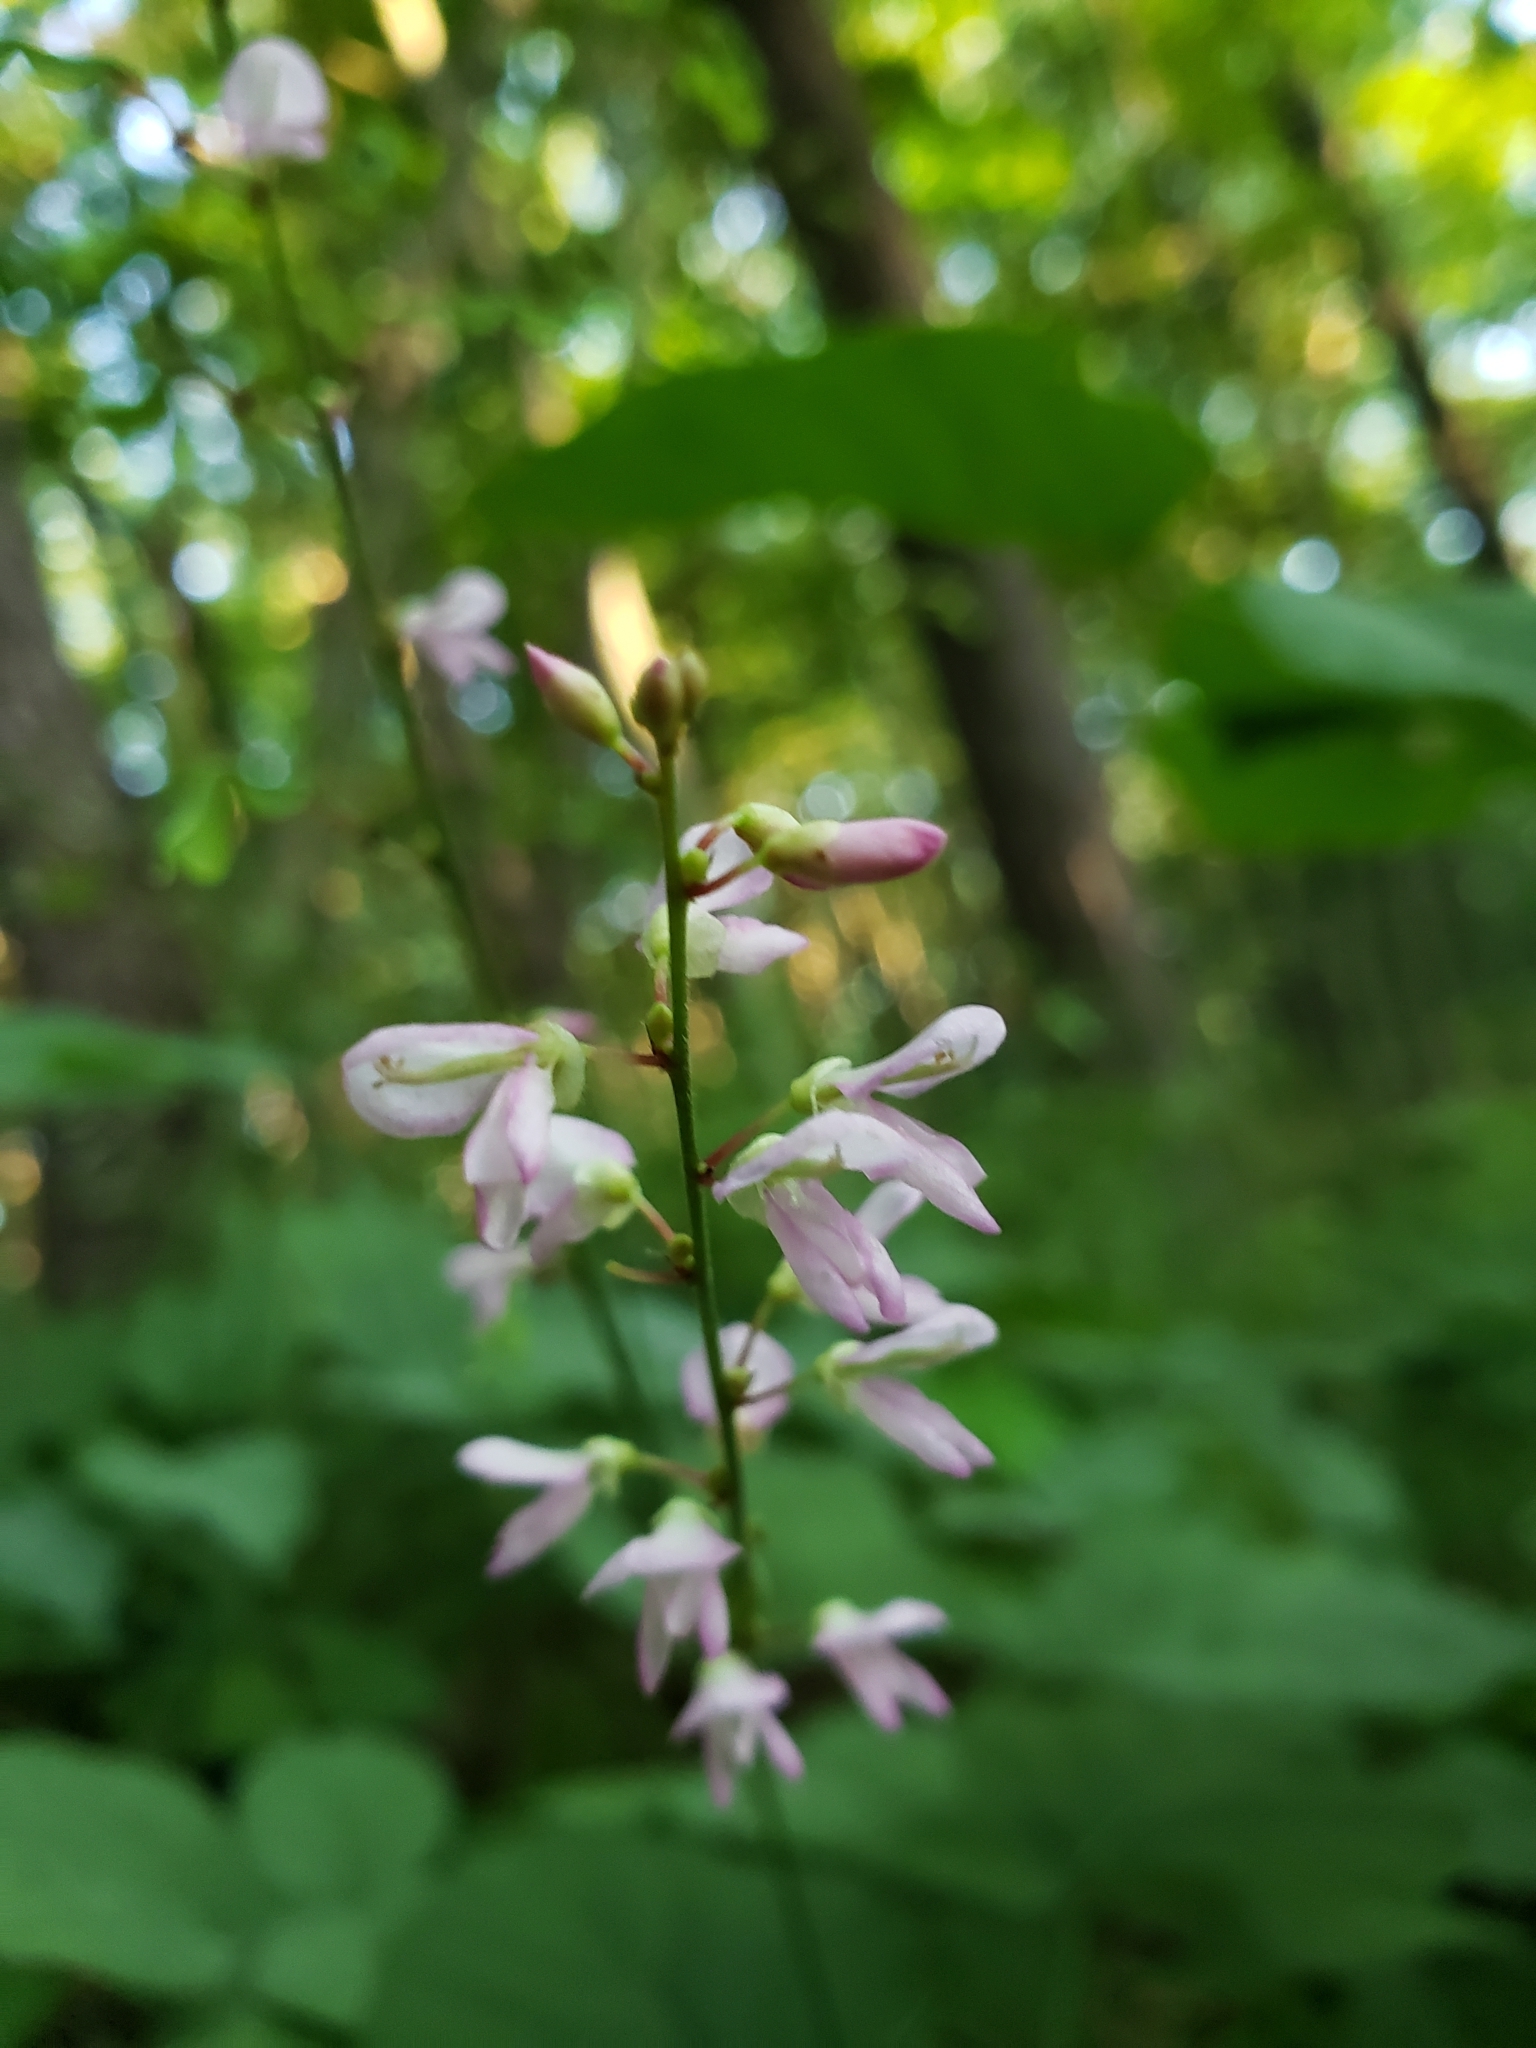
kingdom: Plantae
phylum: Tracheophyta
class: Magnoliopsida
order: Fabales
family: Fabaceae
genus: Hylodesmum
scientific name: Hylodesmum glutinosum
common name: Clustered-leaved tick-trefoil
